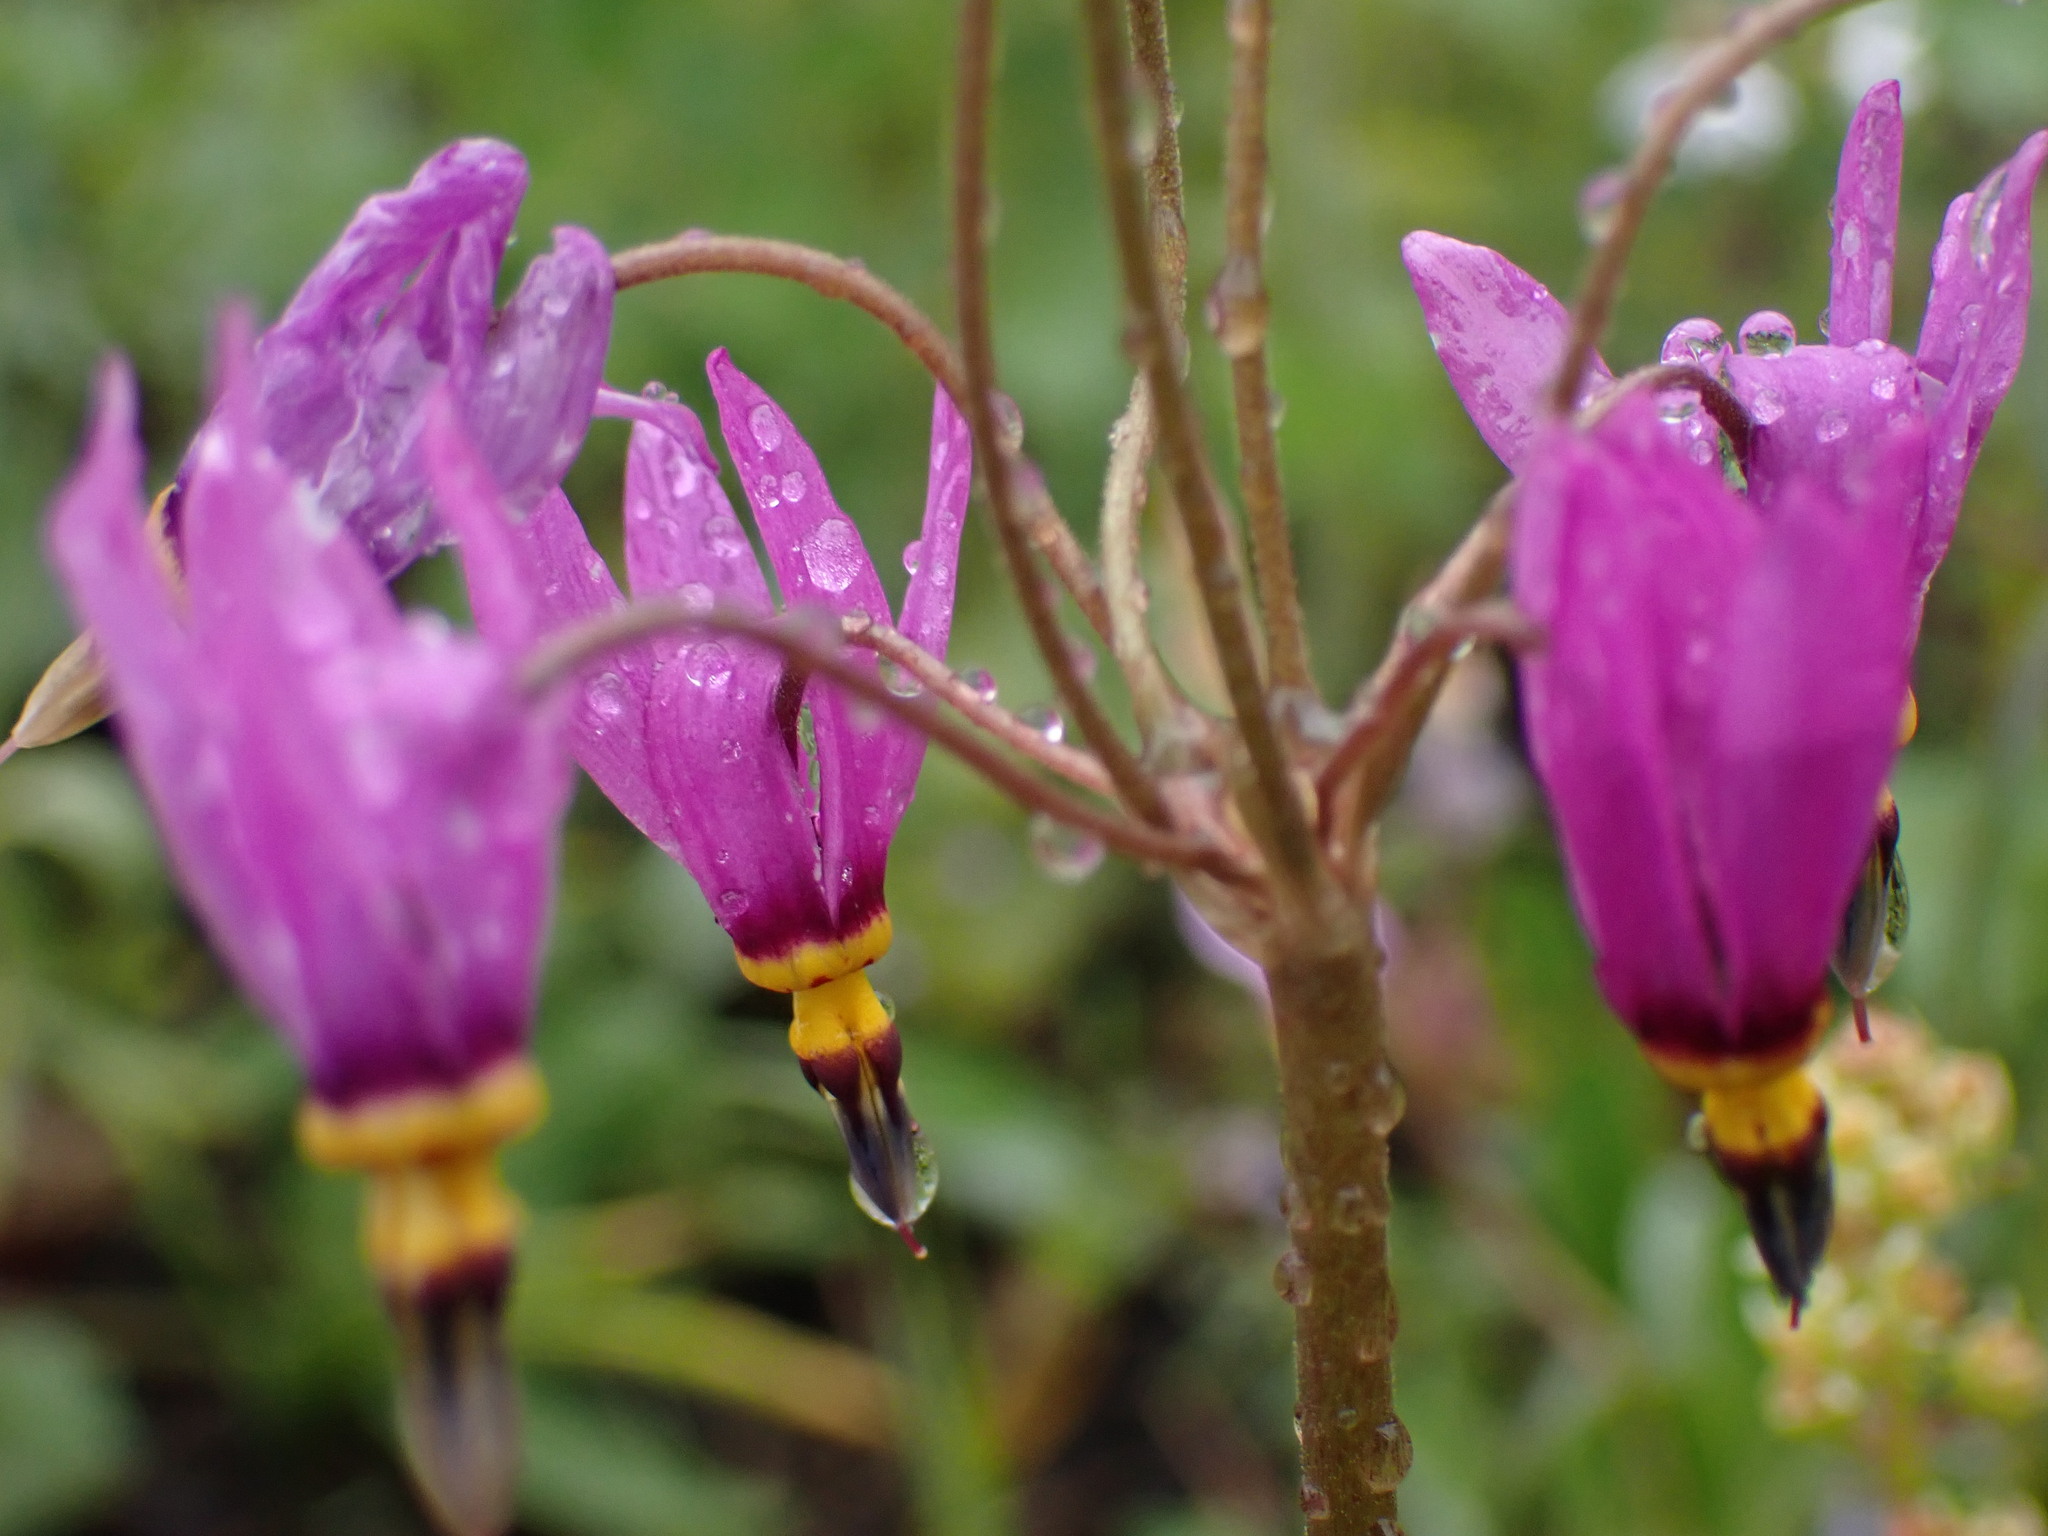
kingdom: Plantae
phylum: Tracheophyta
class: Magnoliopsida
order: Ericales
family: Primulaceae
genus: Dodecatheon
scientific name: Dodecatheon pulchellum
